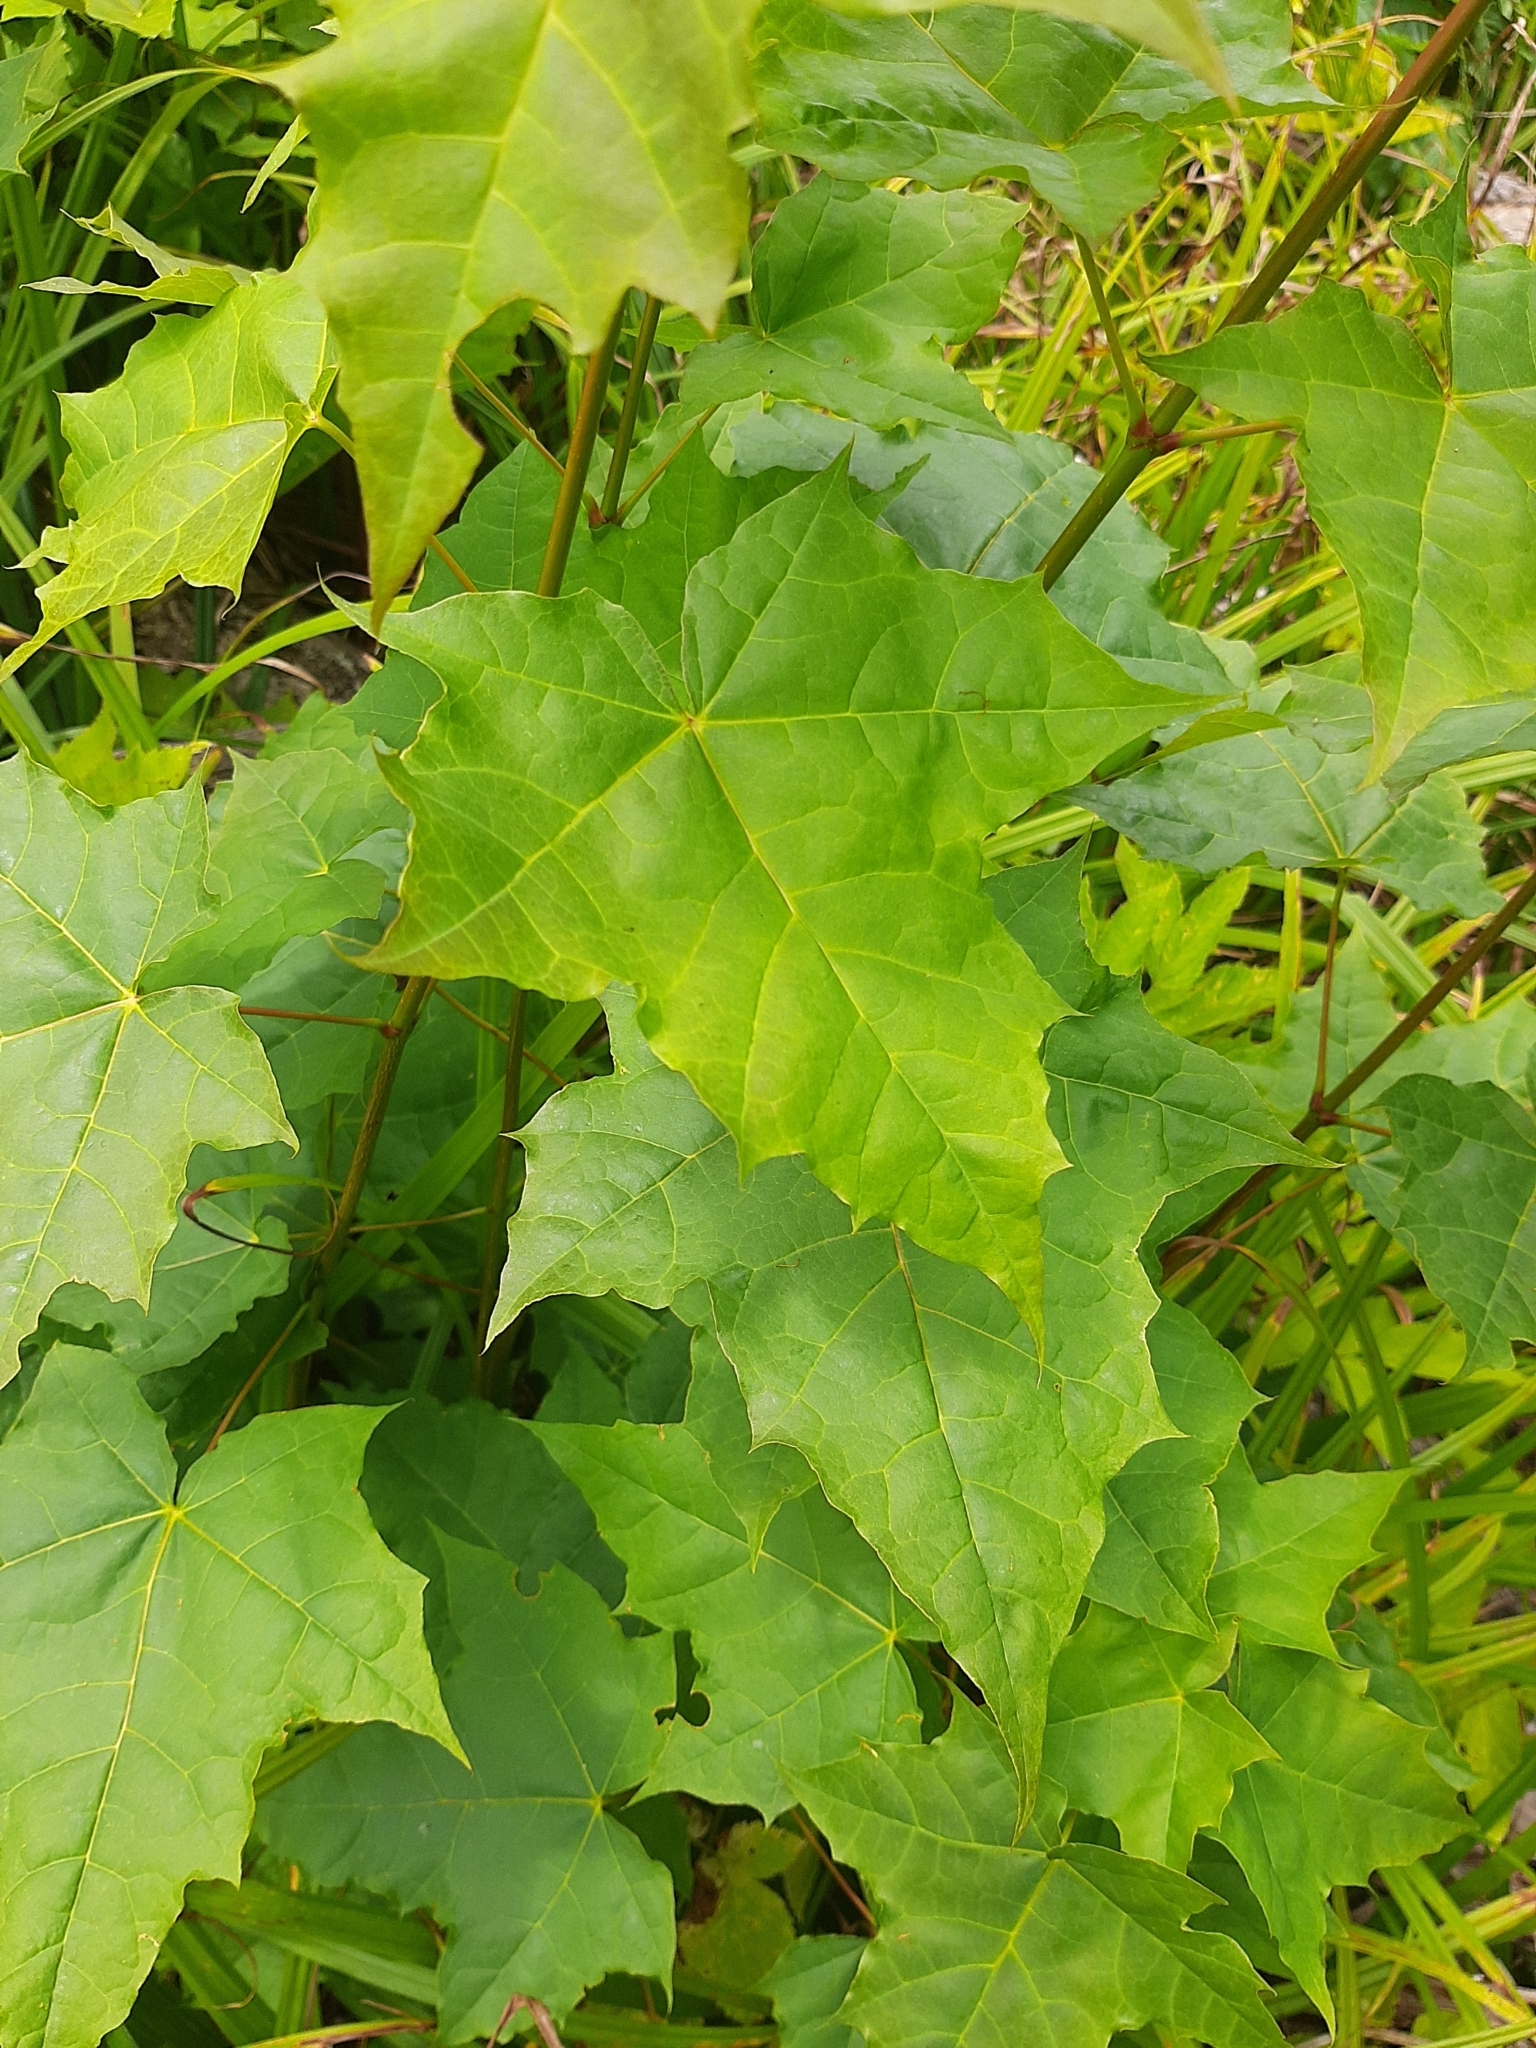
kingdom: Plantae
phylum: Tracheophyta
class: Magnoliopsida
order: Sapindales
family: Sapindaceae
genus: Acer
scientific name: Acer platanoides
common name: Norway maple
